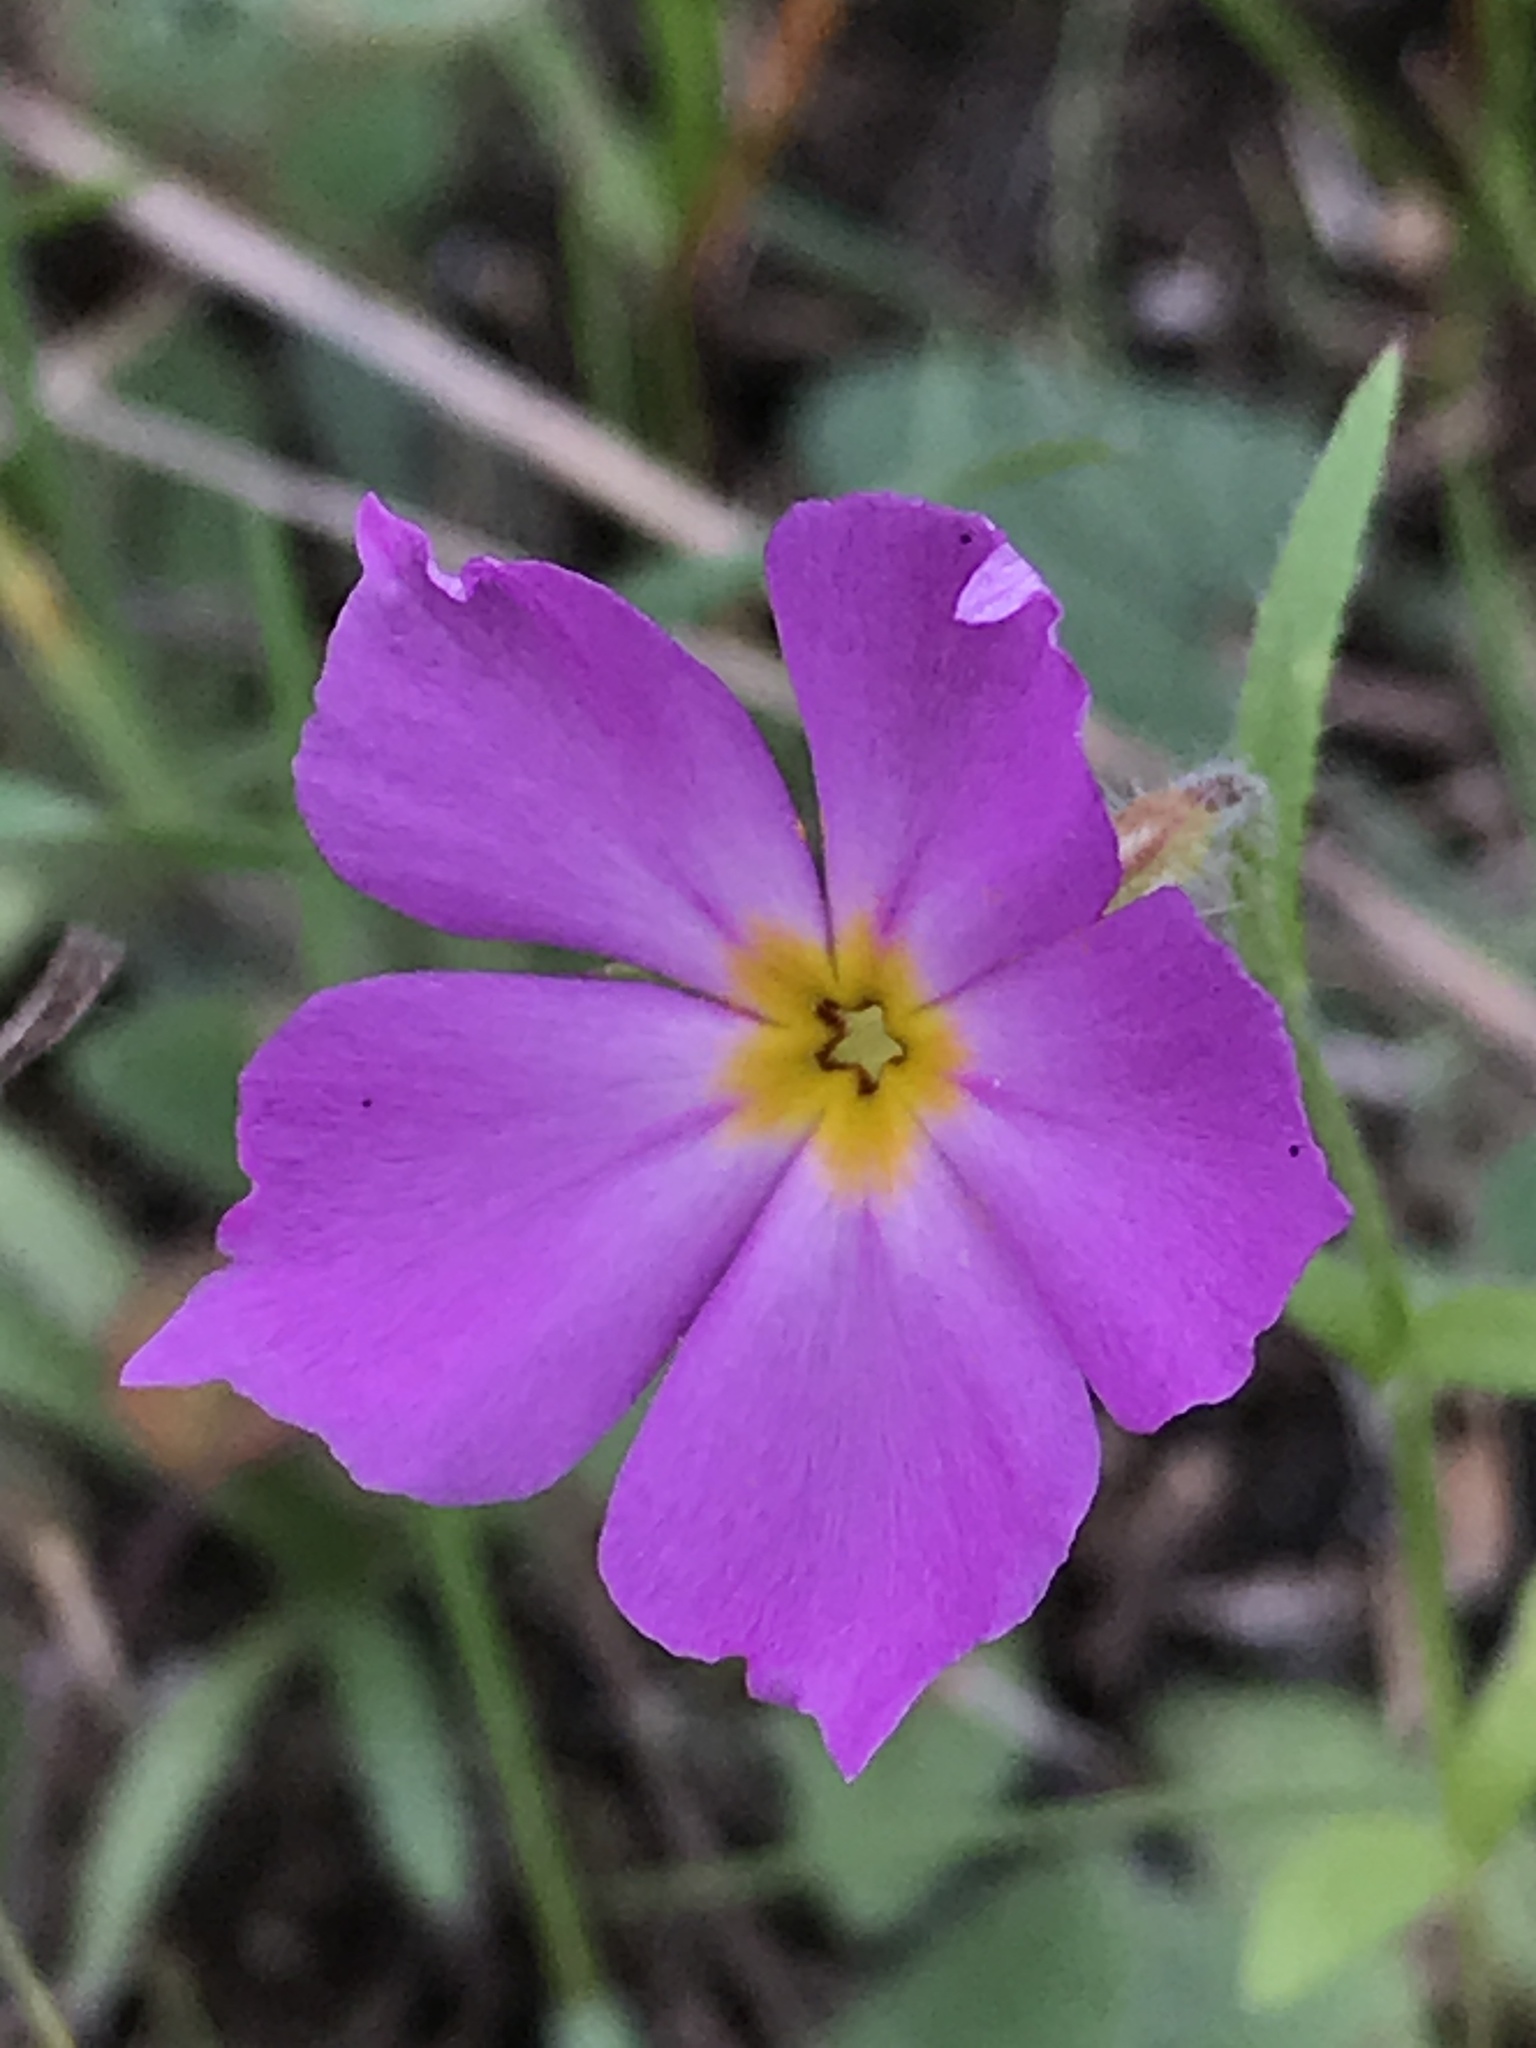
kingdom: Plantae
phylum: Tracheophyta
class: Magnoliopsida
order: Ericales
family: Polemoniaceae
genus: Phlox
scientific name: Phlox roemeriana
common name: Roemer's phlox
